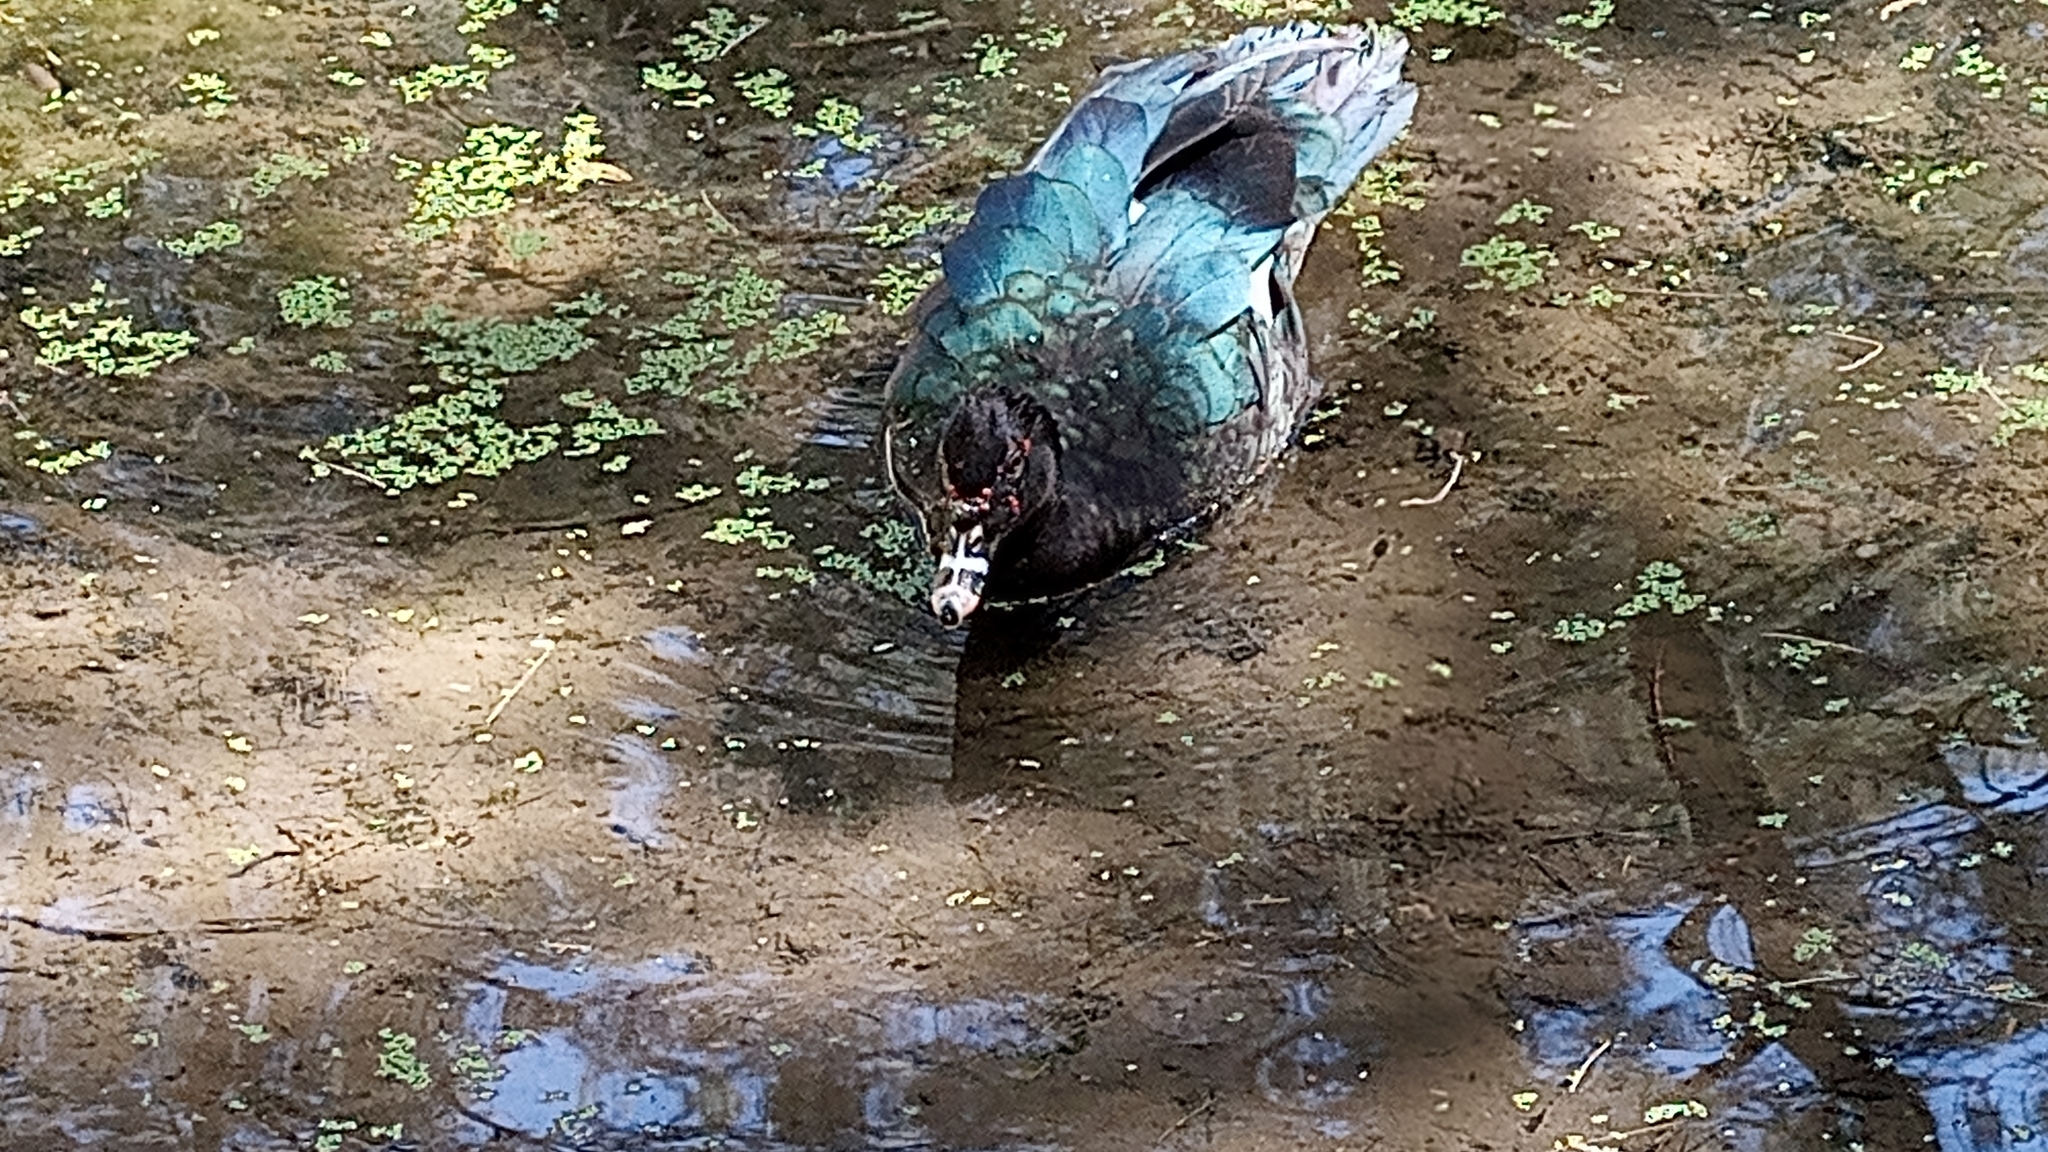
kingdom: Animalia
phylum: Chordata
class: Aves
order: Anseriformes
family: Anatidae
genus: Cairina
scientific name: Cairina moschata
